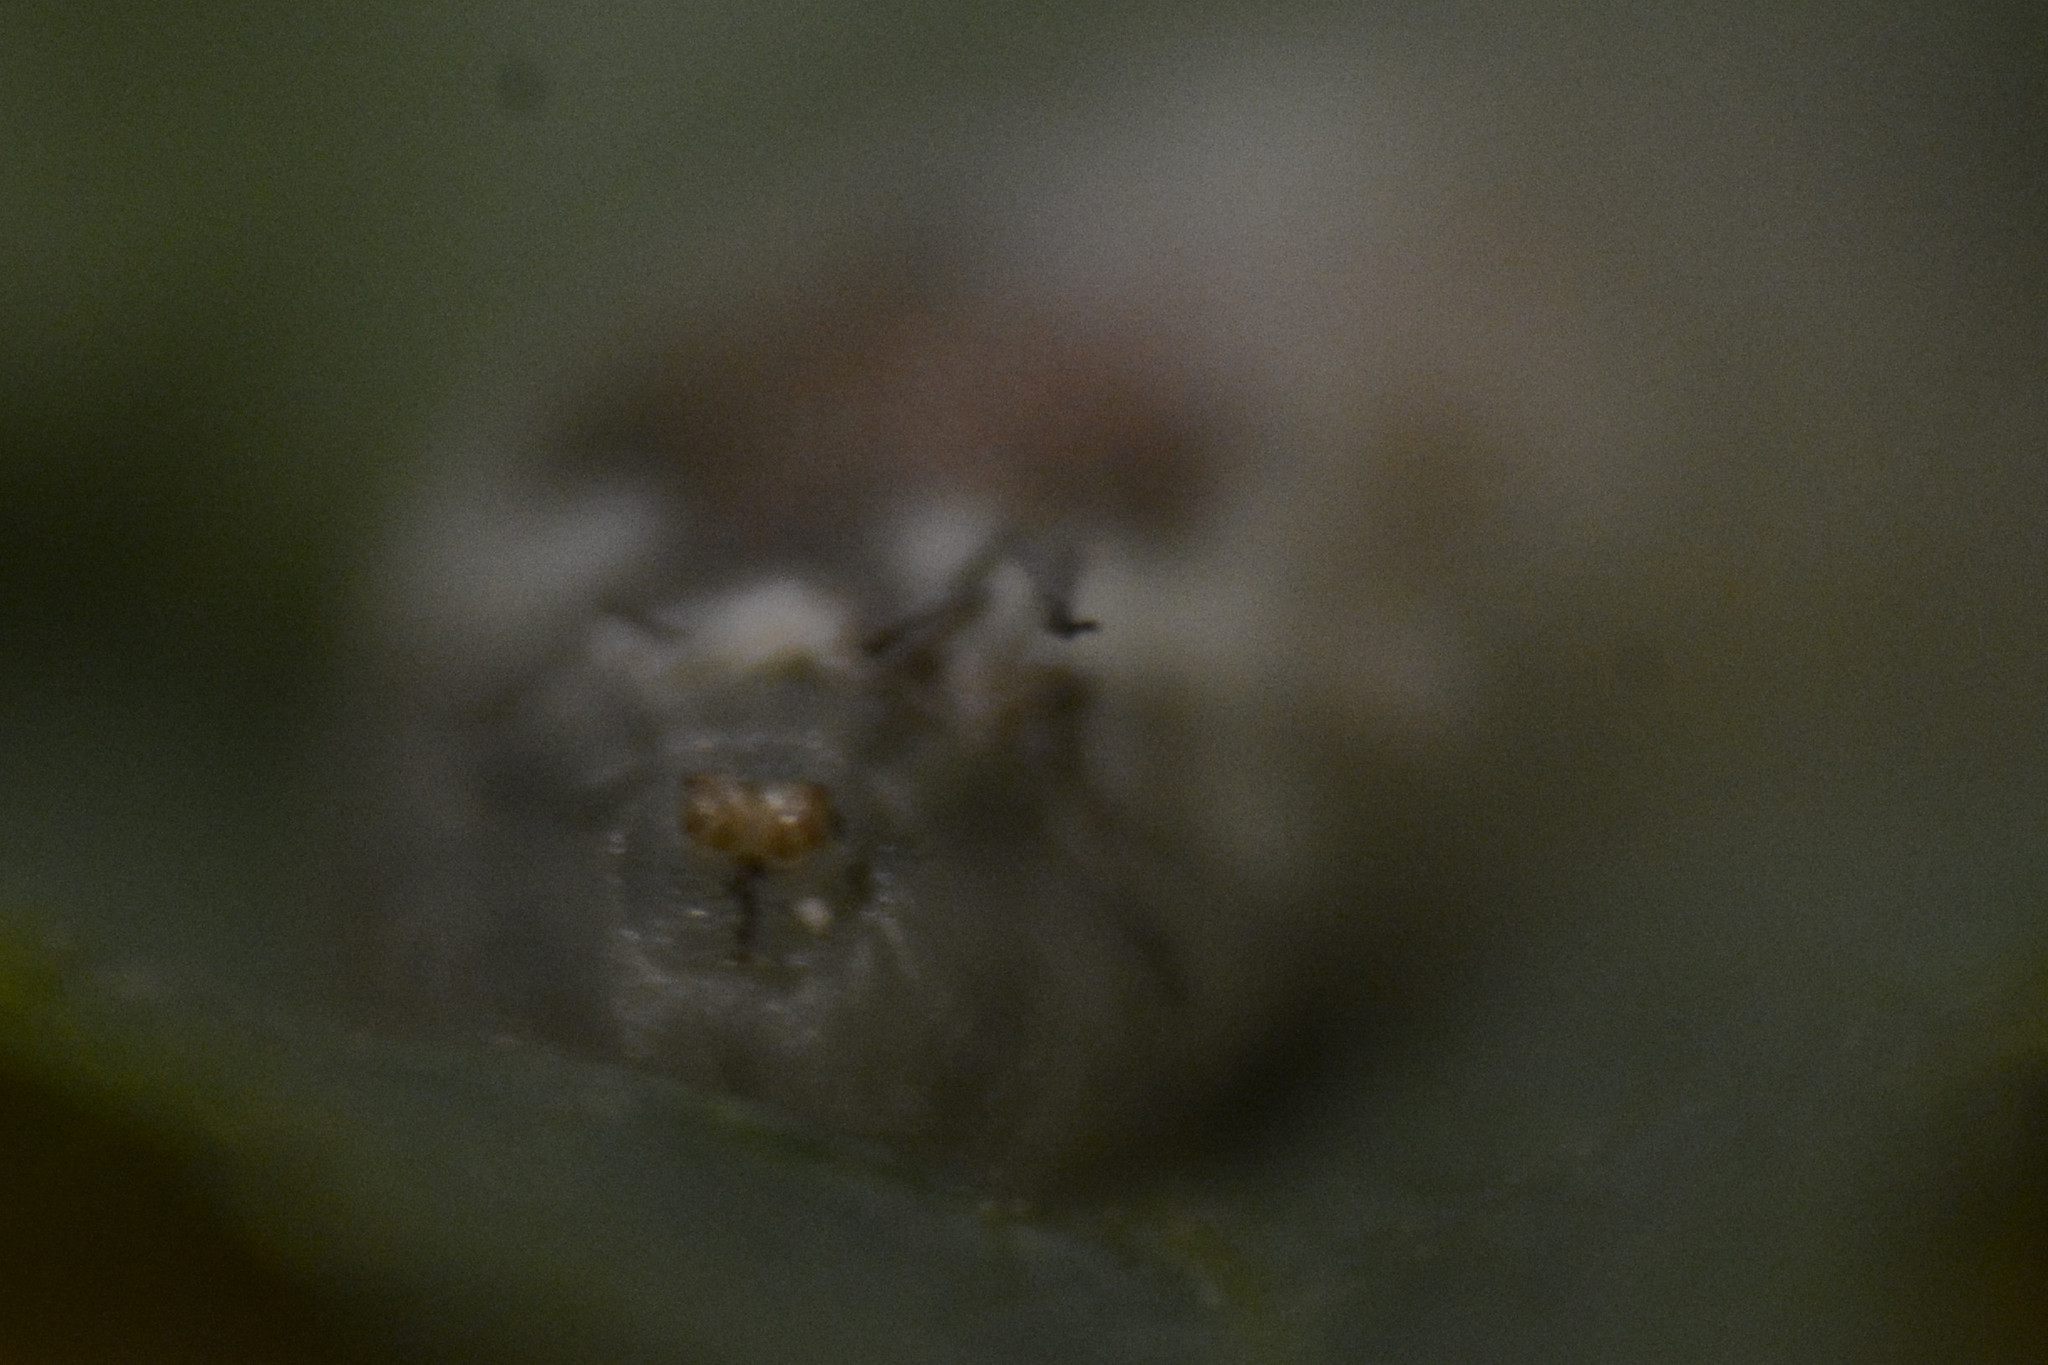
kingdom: Animalia
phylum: Arthropoda
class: Insecta
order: Diptera
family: Syrphidae
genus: Episyrphus
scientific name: Episyrphus balteatus
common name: Marmalade hoverfly
